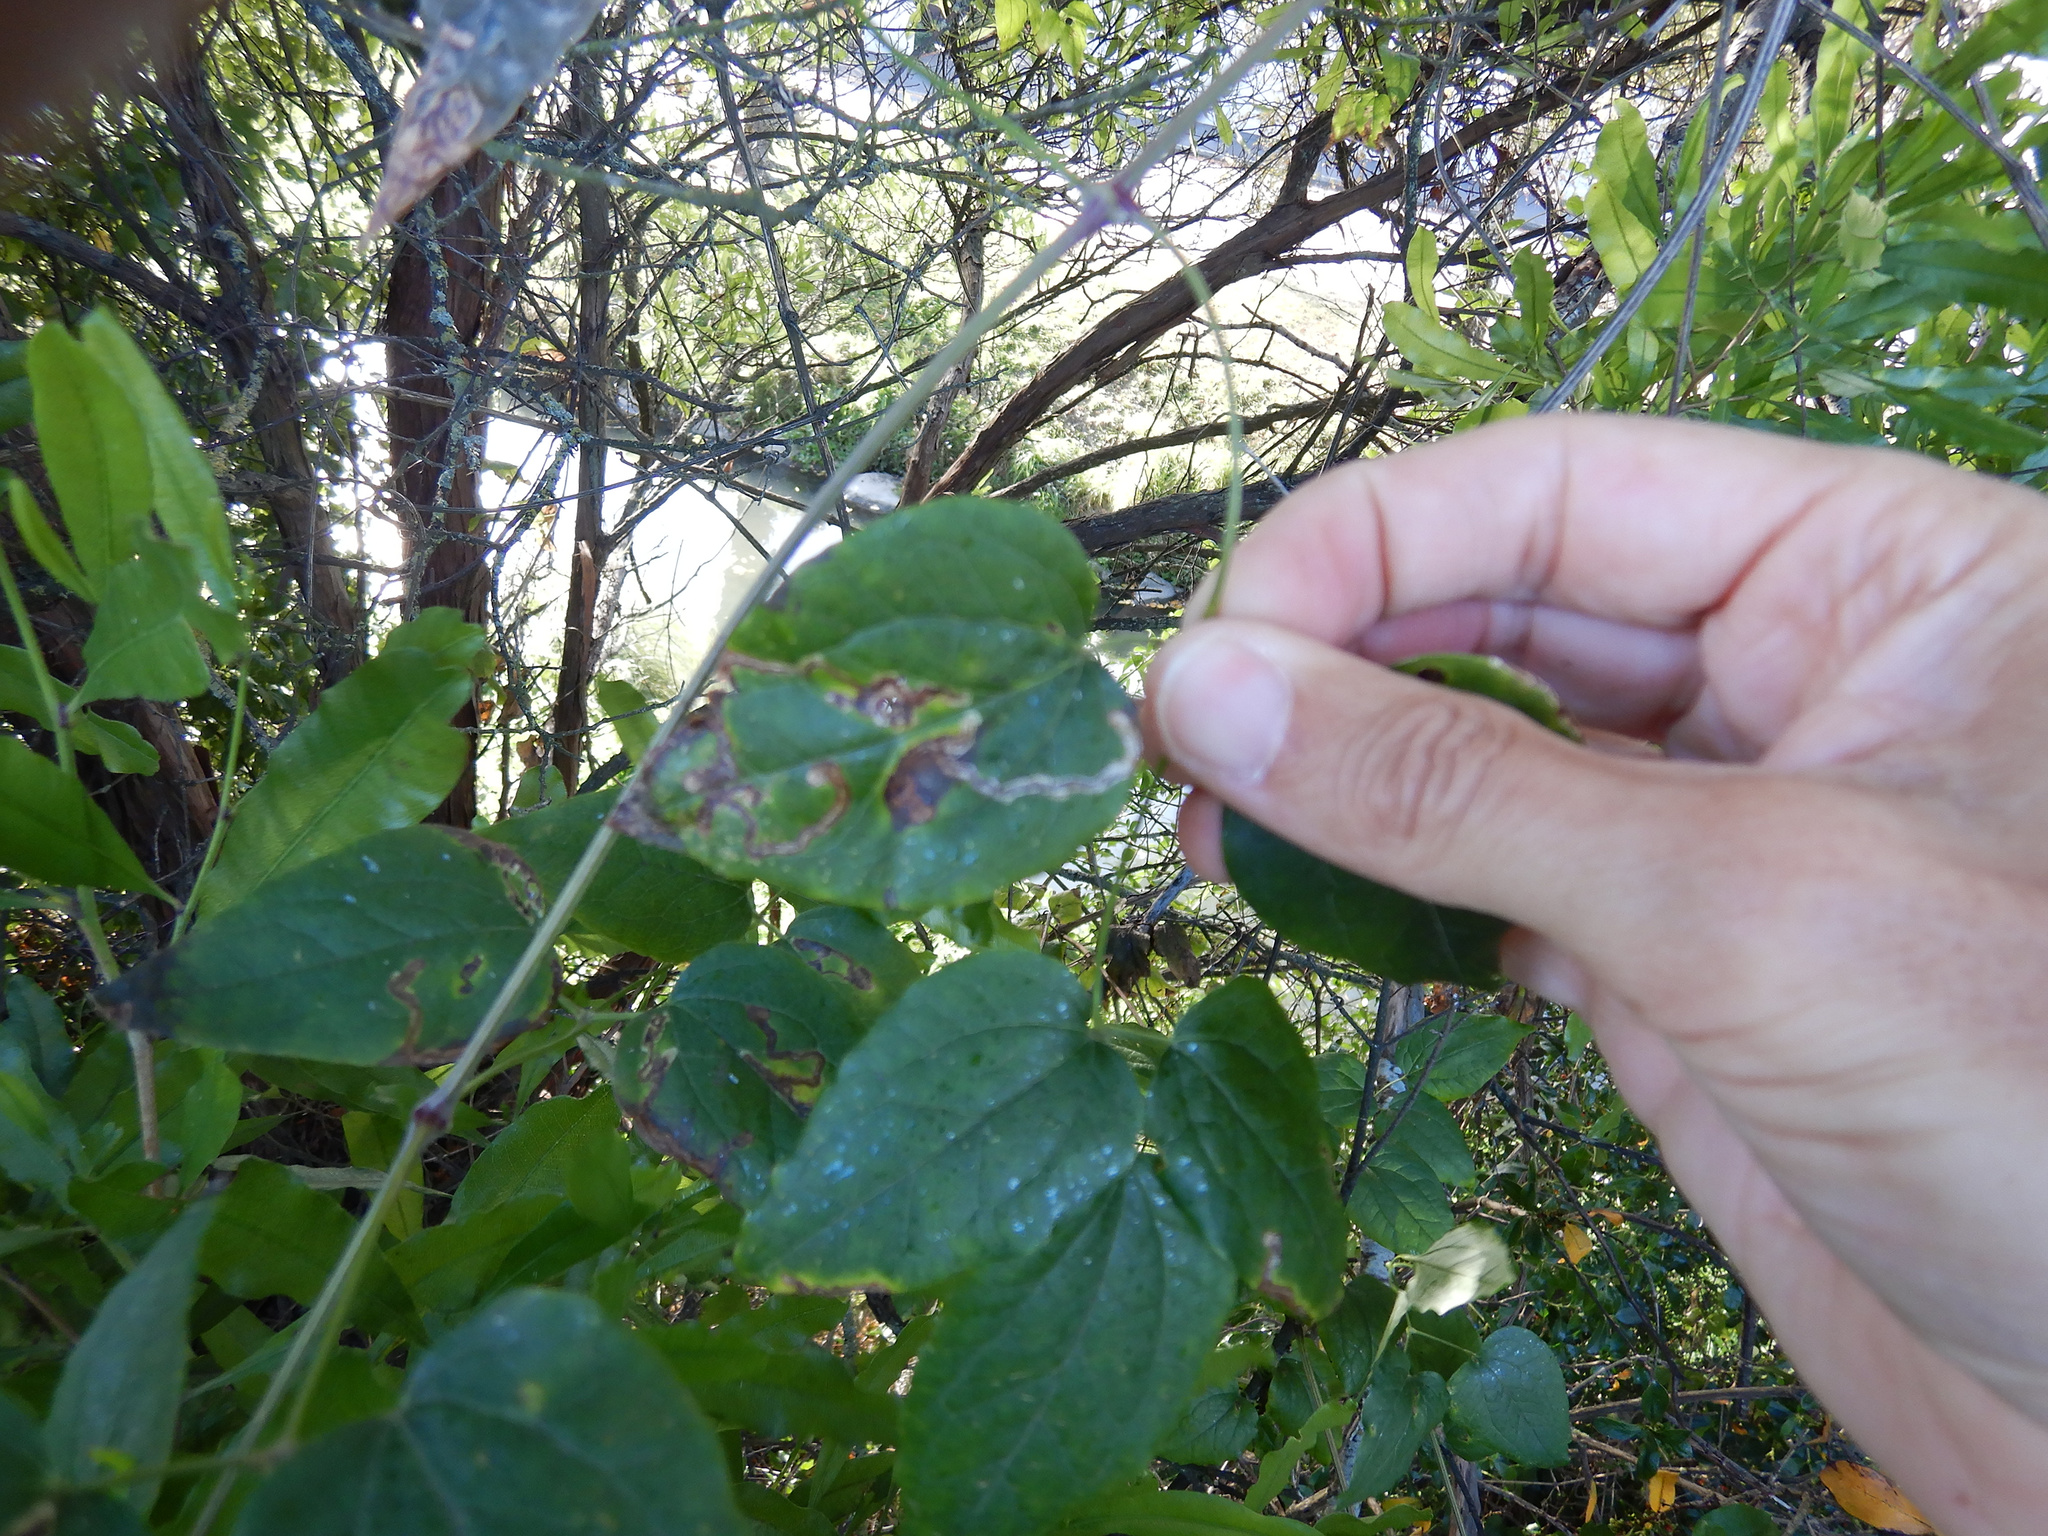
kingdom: Animalia
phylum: Arthropoda
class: Insecta
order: Diptera
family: Agromyzidae
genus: Phytomyza
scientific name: Phytomyza vitalbae
